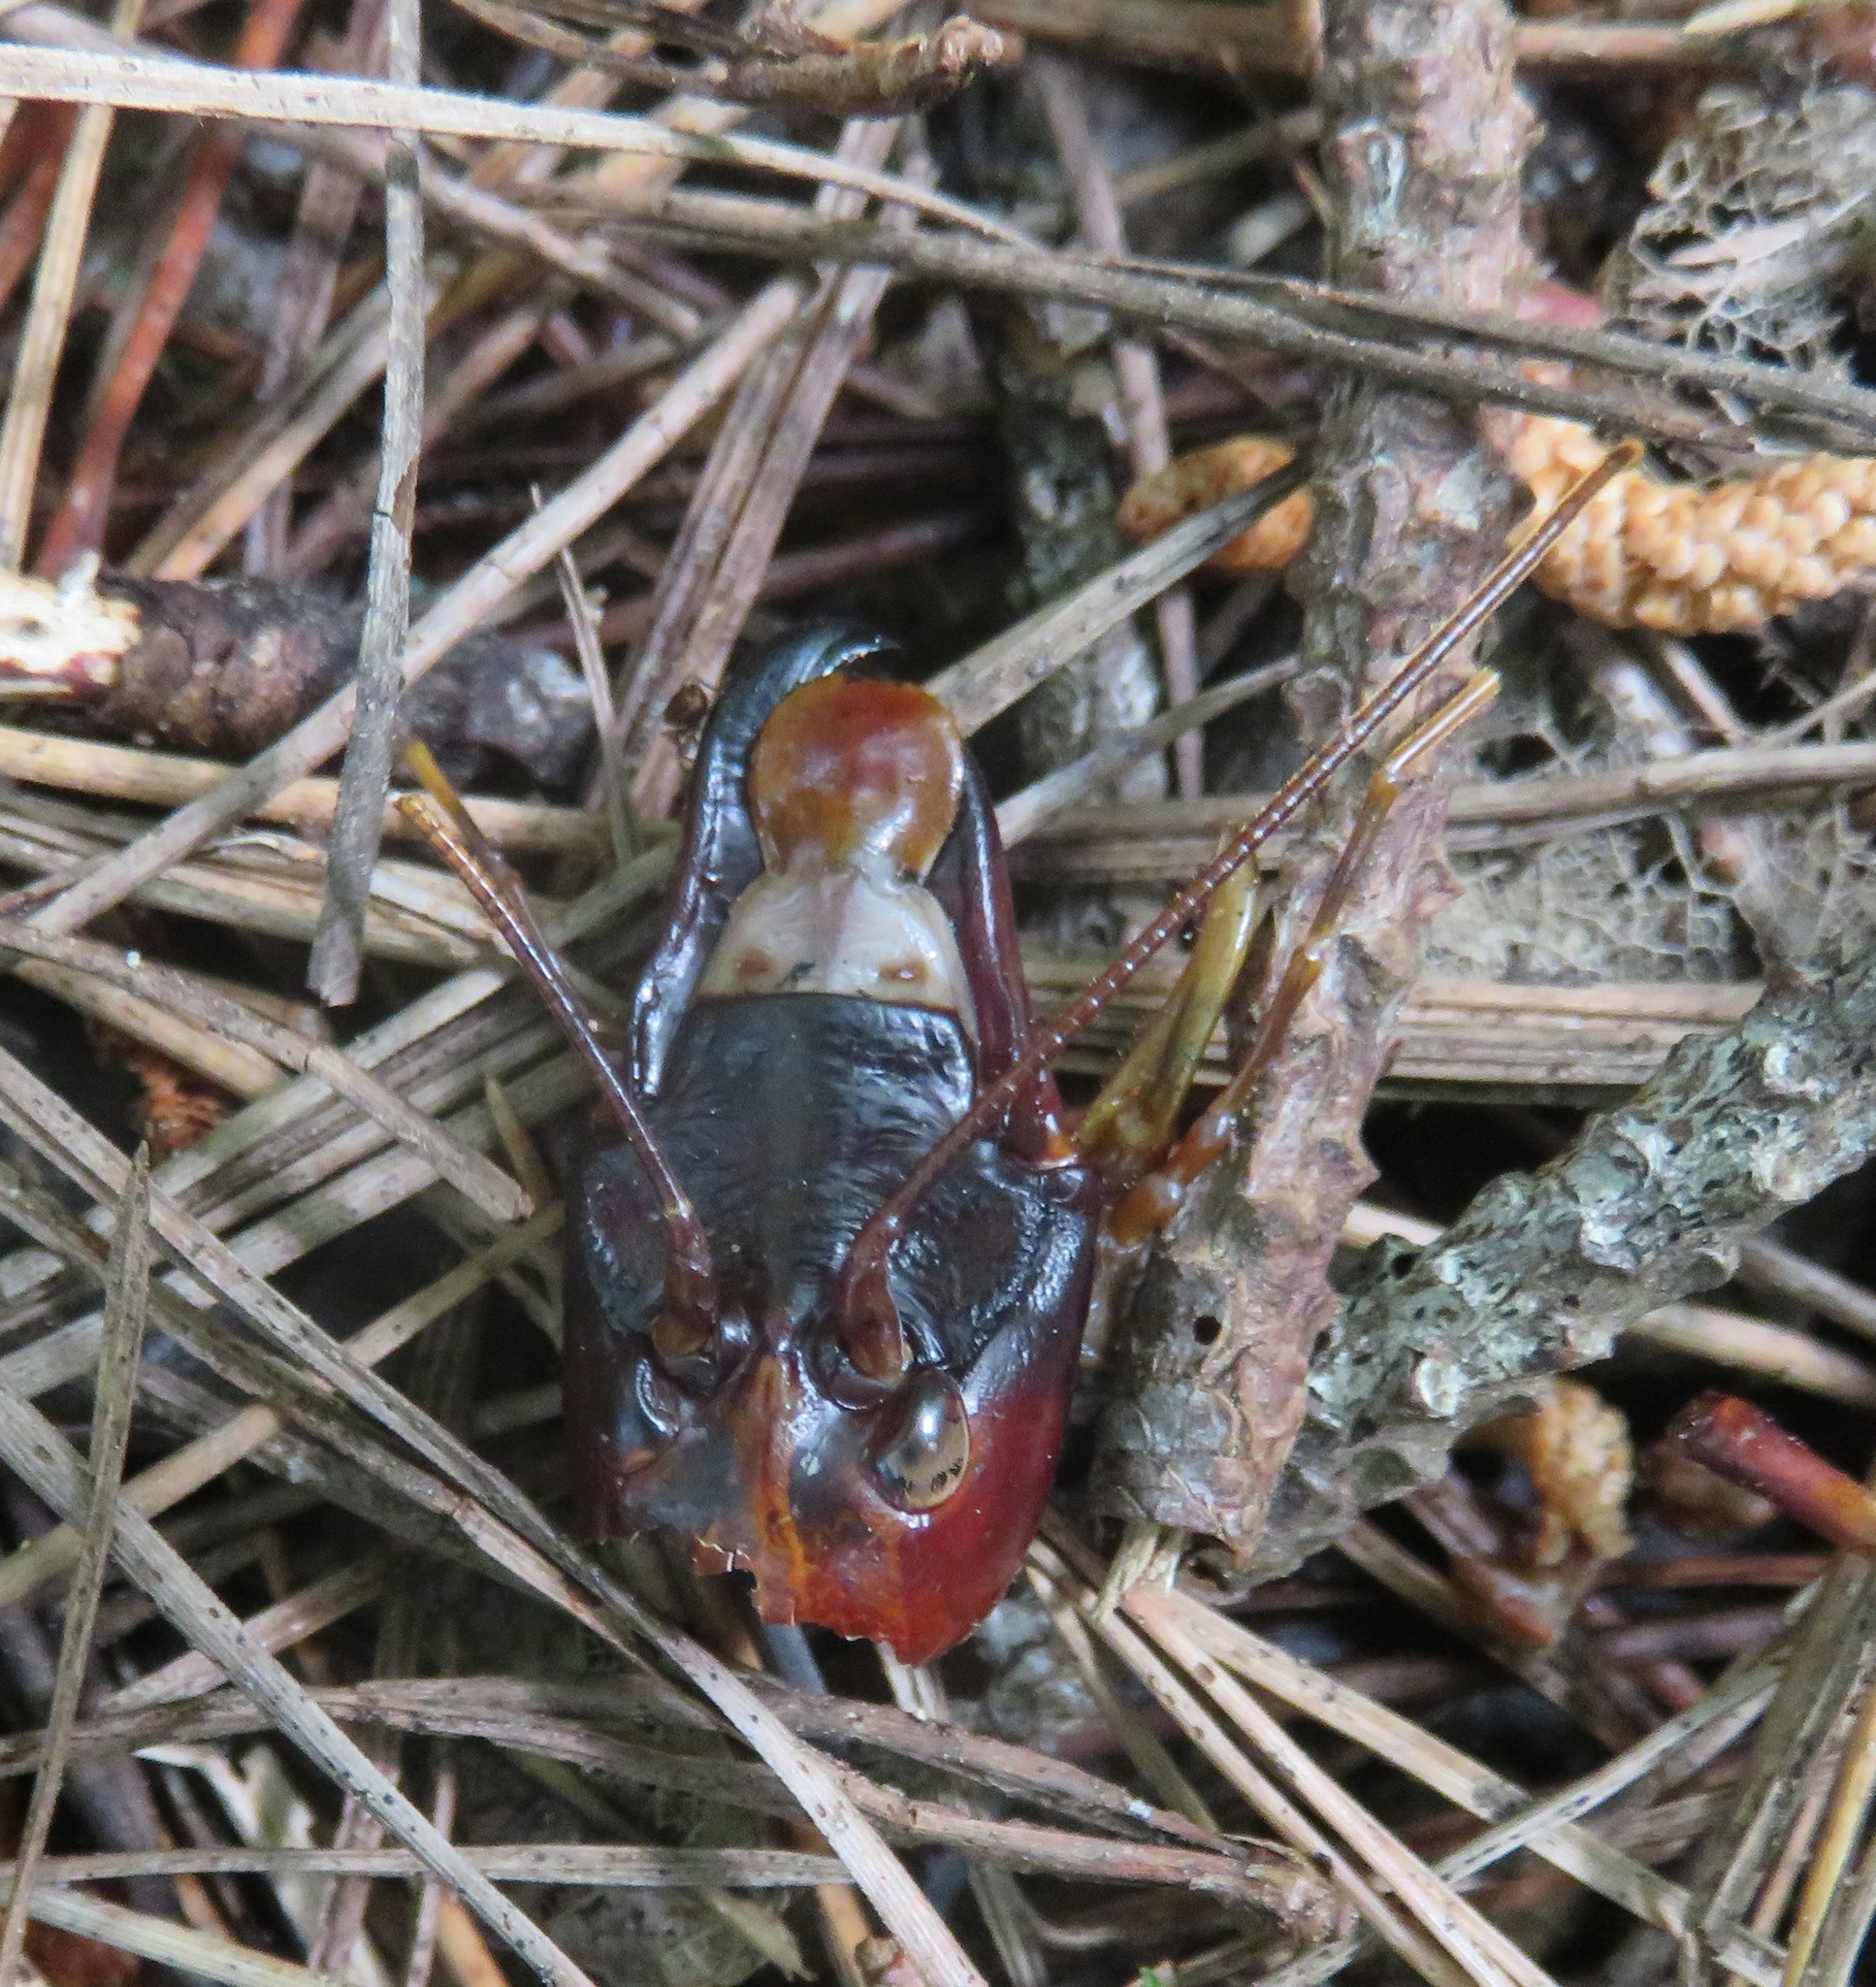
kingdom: Animalia
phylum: Arthropoda
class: Insecta
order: Orthoptera
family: Anostostomatidae
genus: Hemideina
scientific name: Hemideina crassidens
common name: Wellington tree weta
